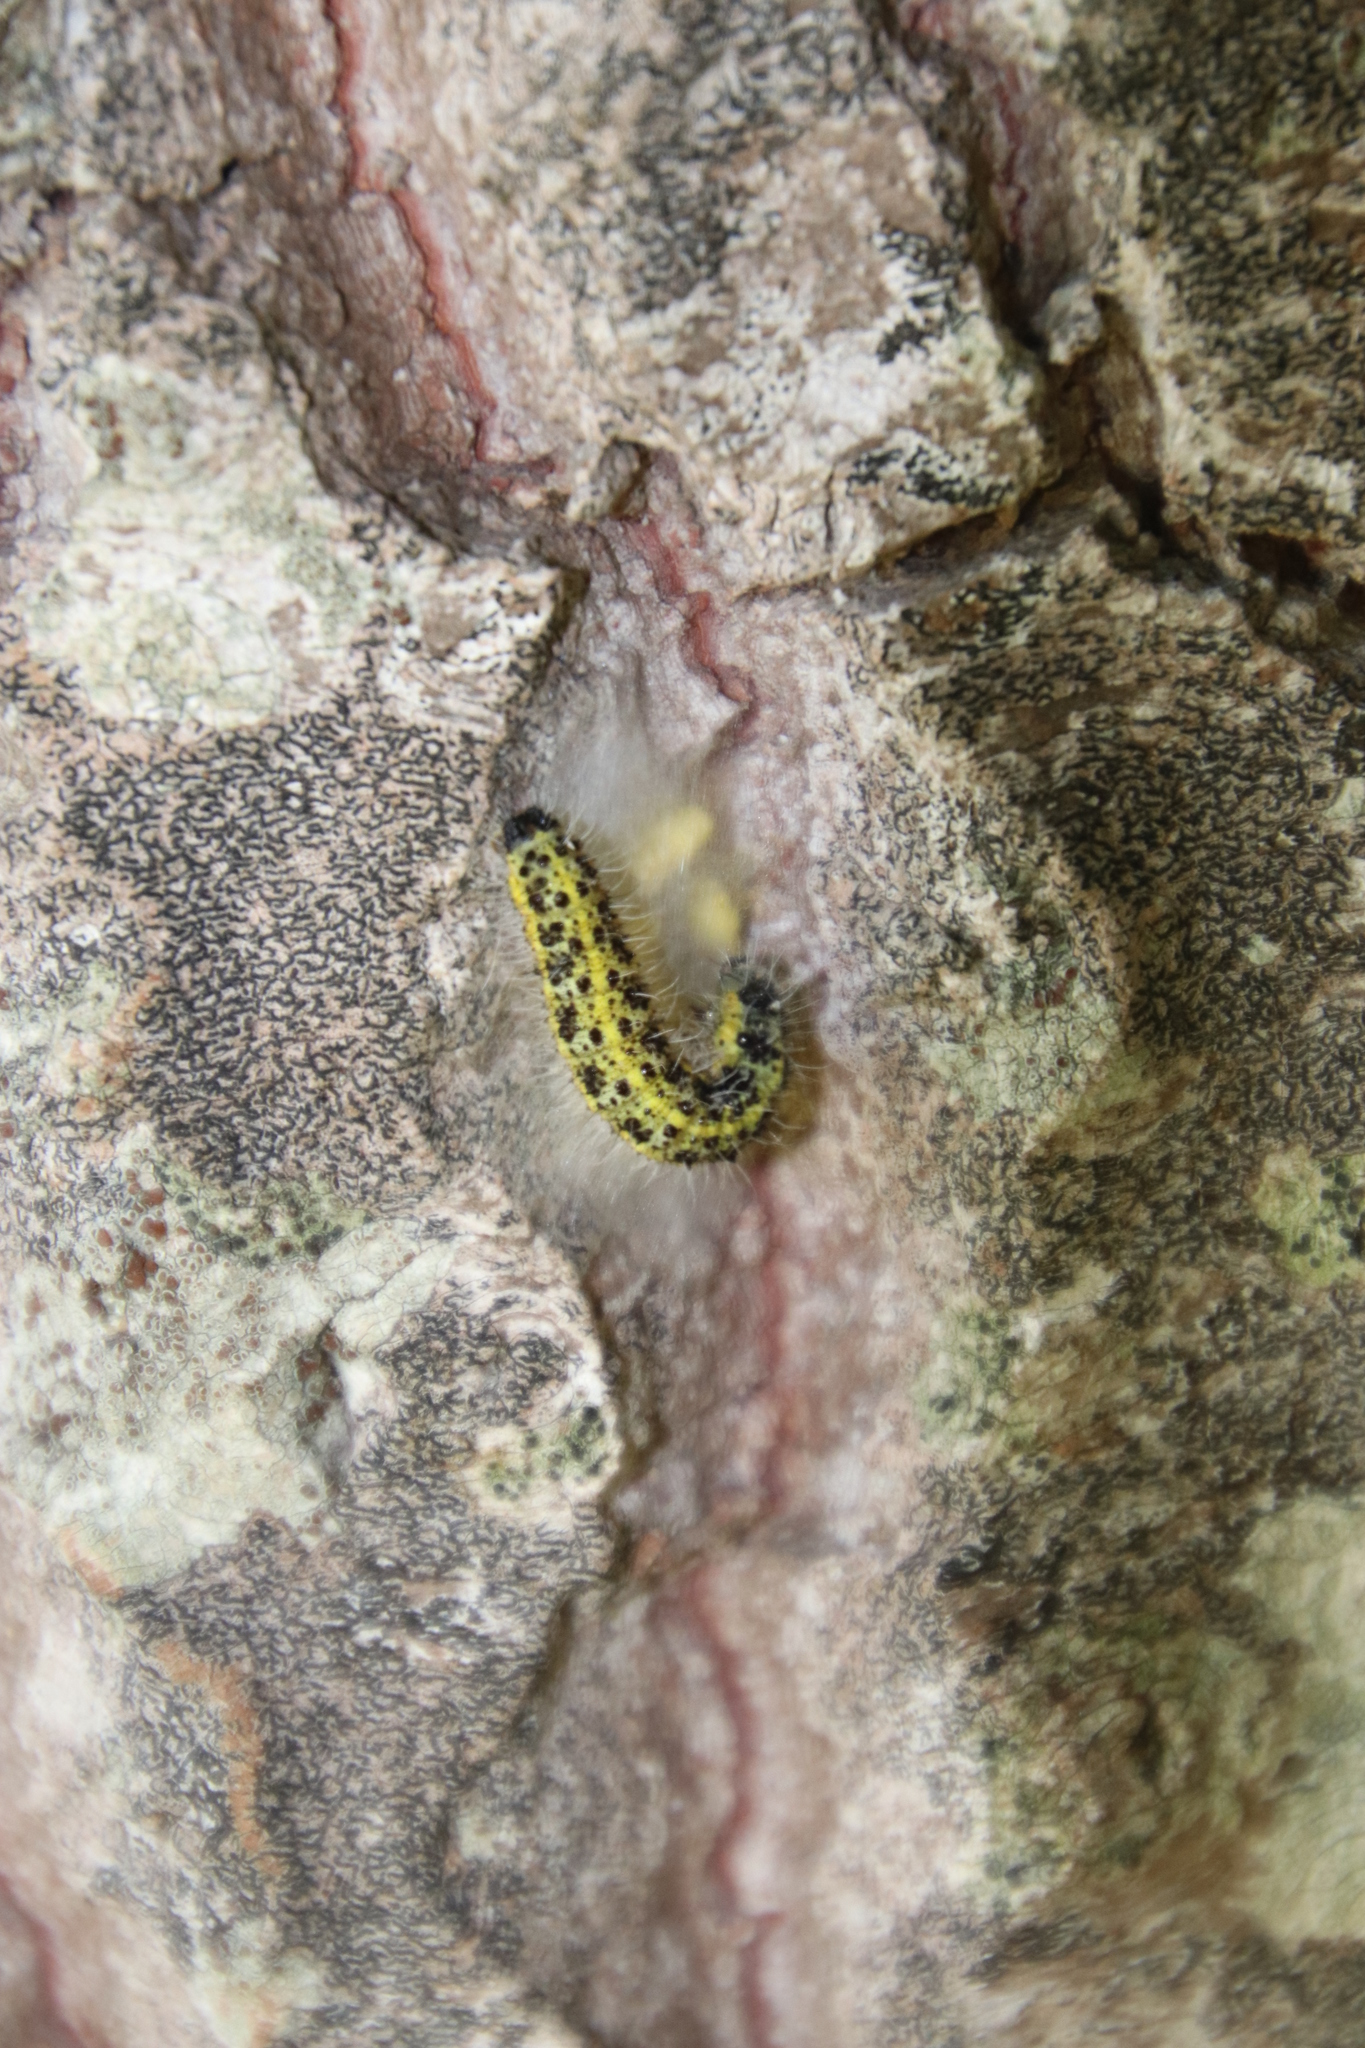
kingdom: Animalia
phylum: Arthropoda
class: Insecta
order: Lepidoptera
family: Pieridae
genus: Pieris
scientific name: Pieris brassicae
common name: Large white
